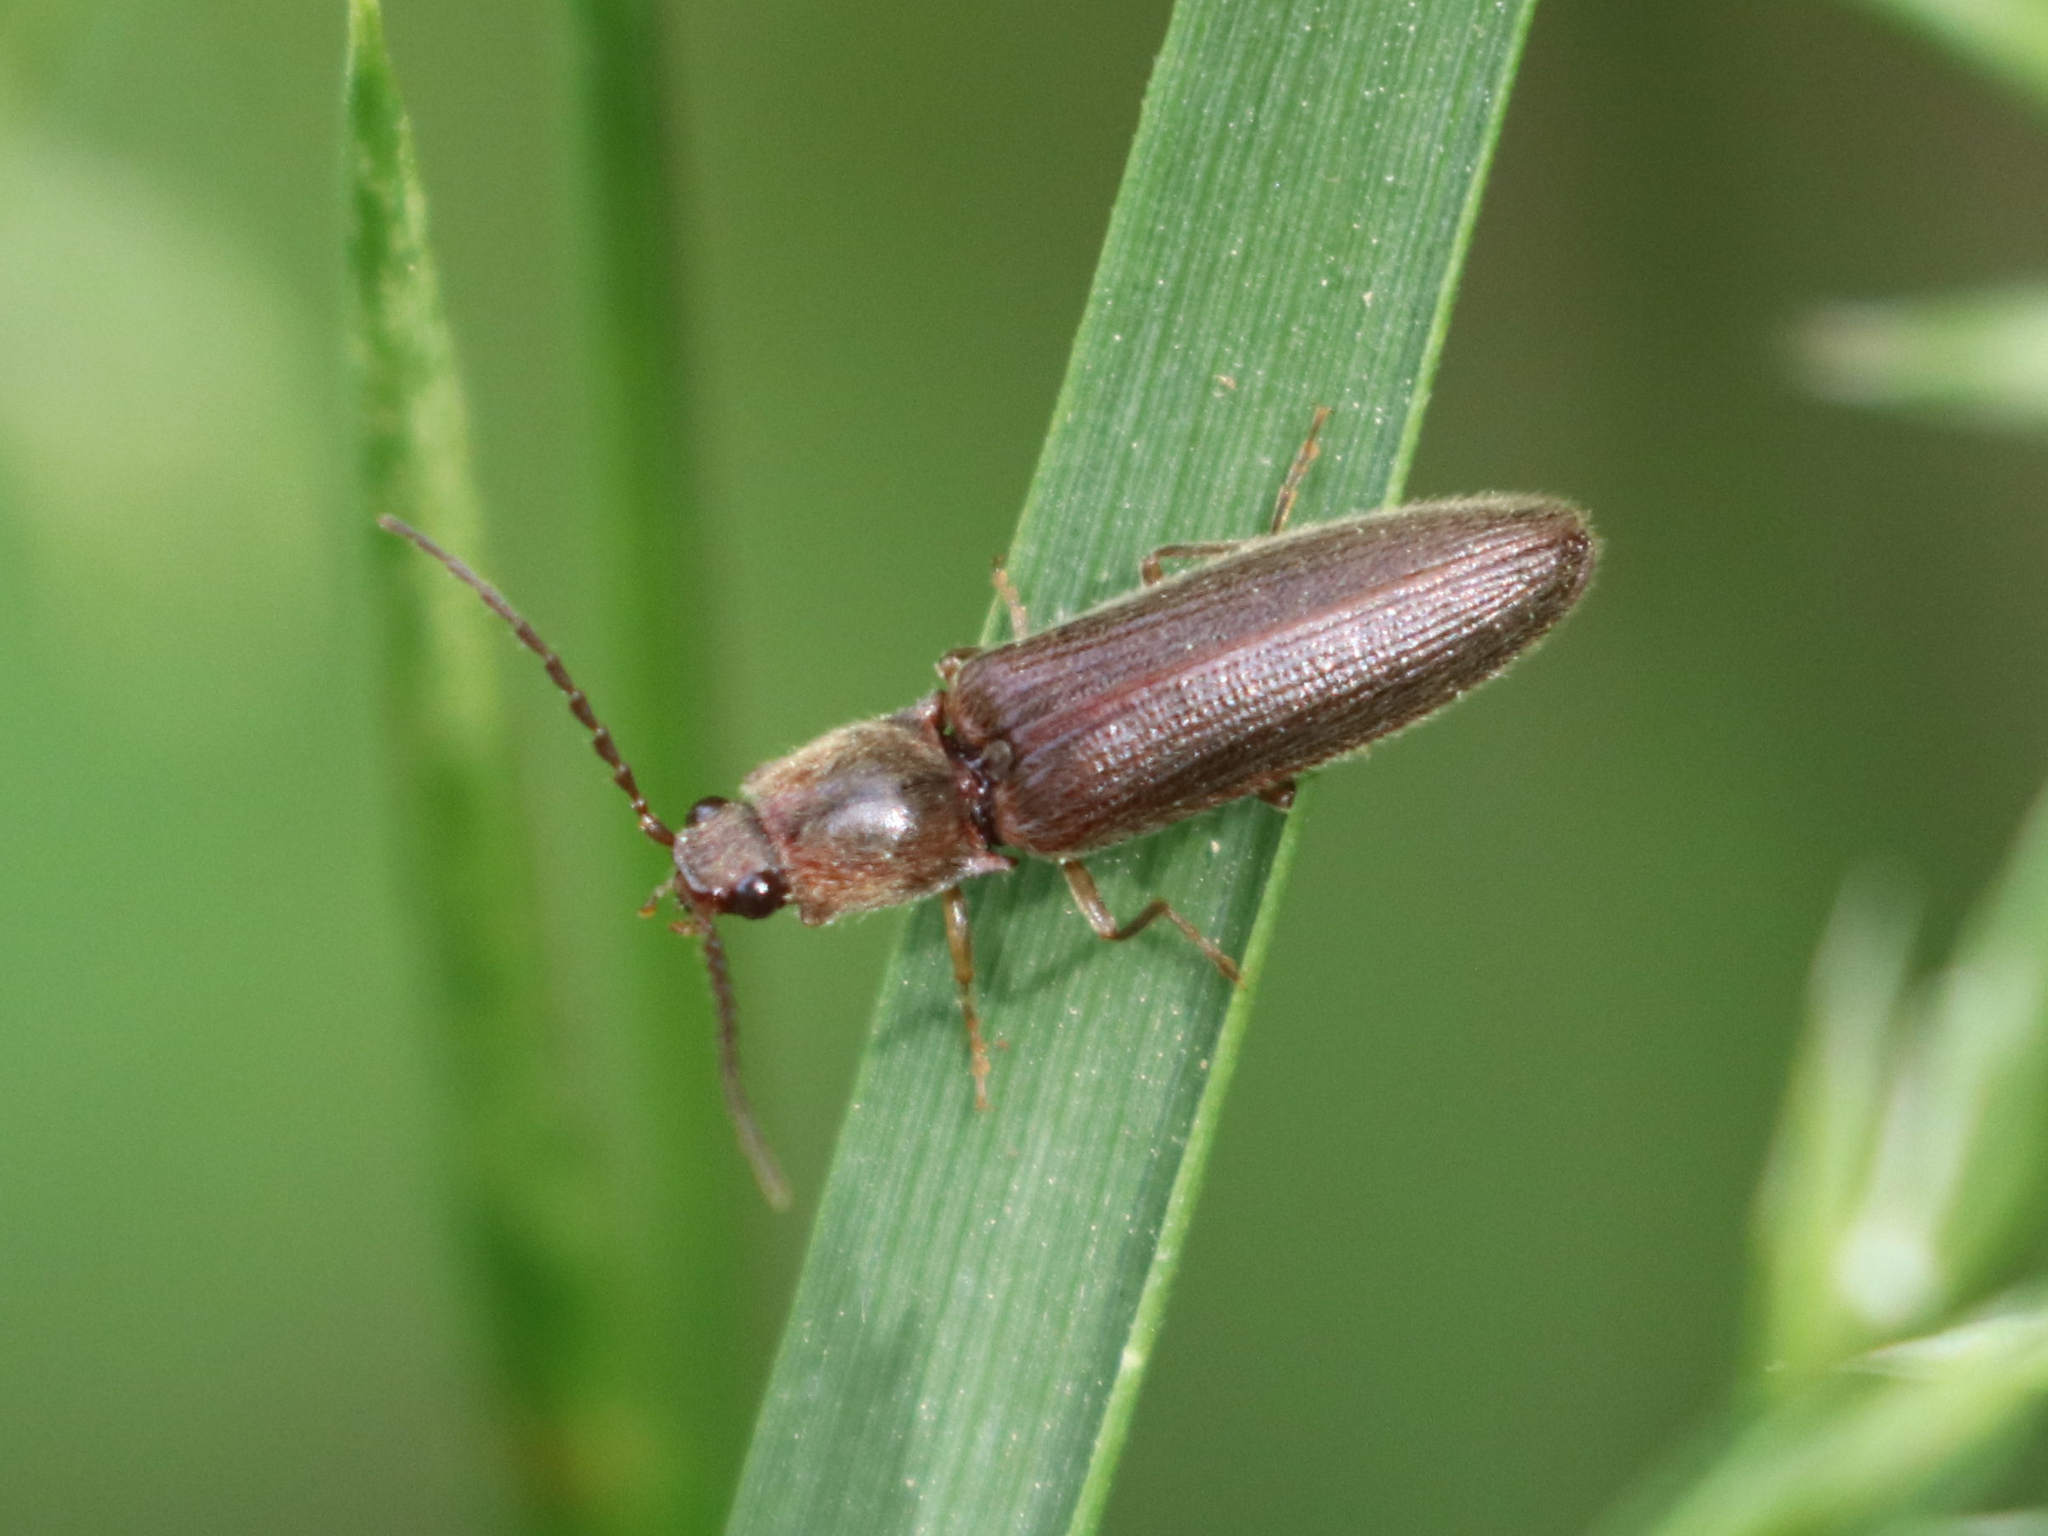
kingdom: Animalia
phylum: Arthropoda
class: Insecta
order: Coleoptera
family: Elateridae
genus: Athous
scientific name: Athous brightwelli
